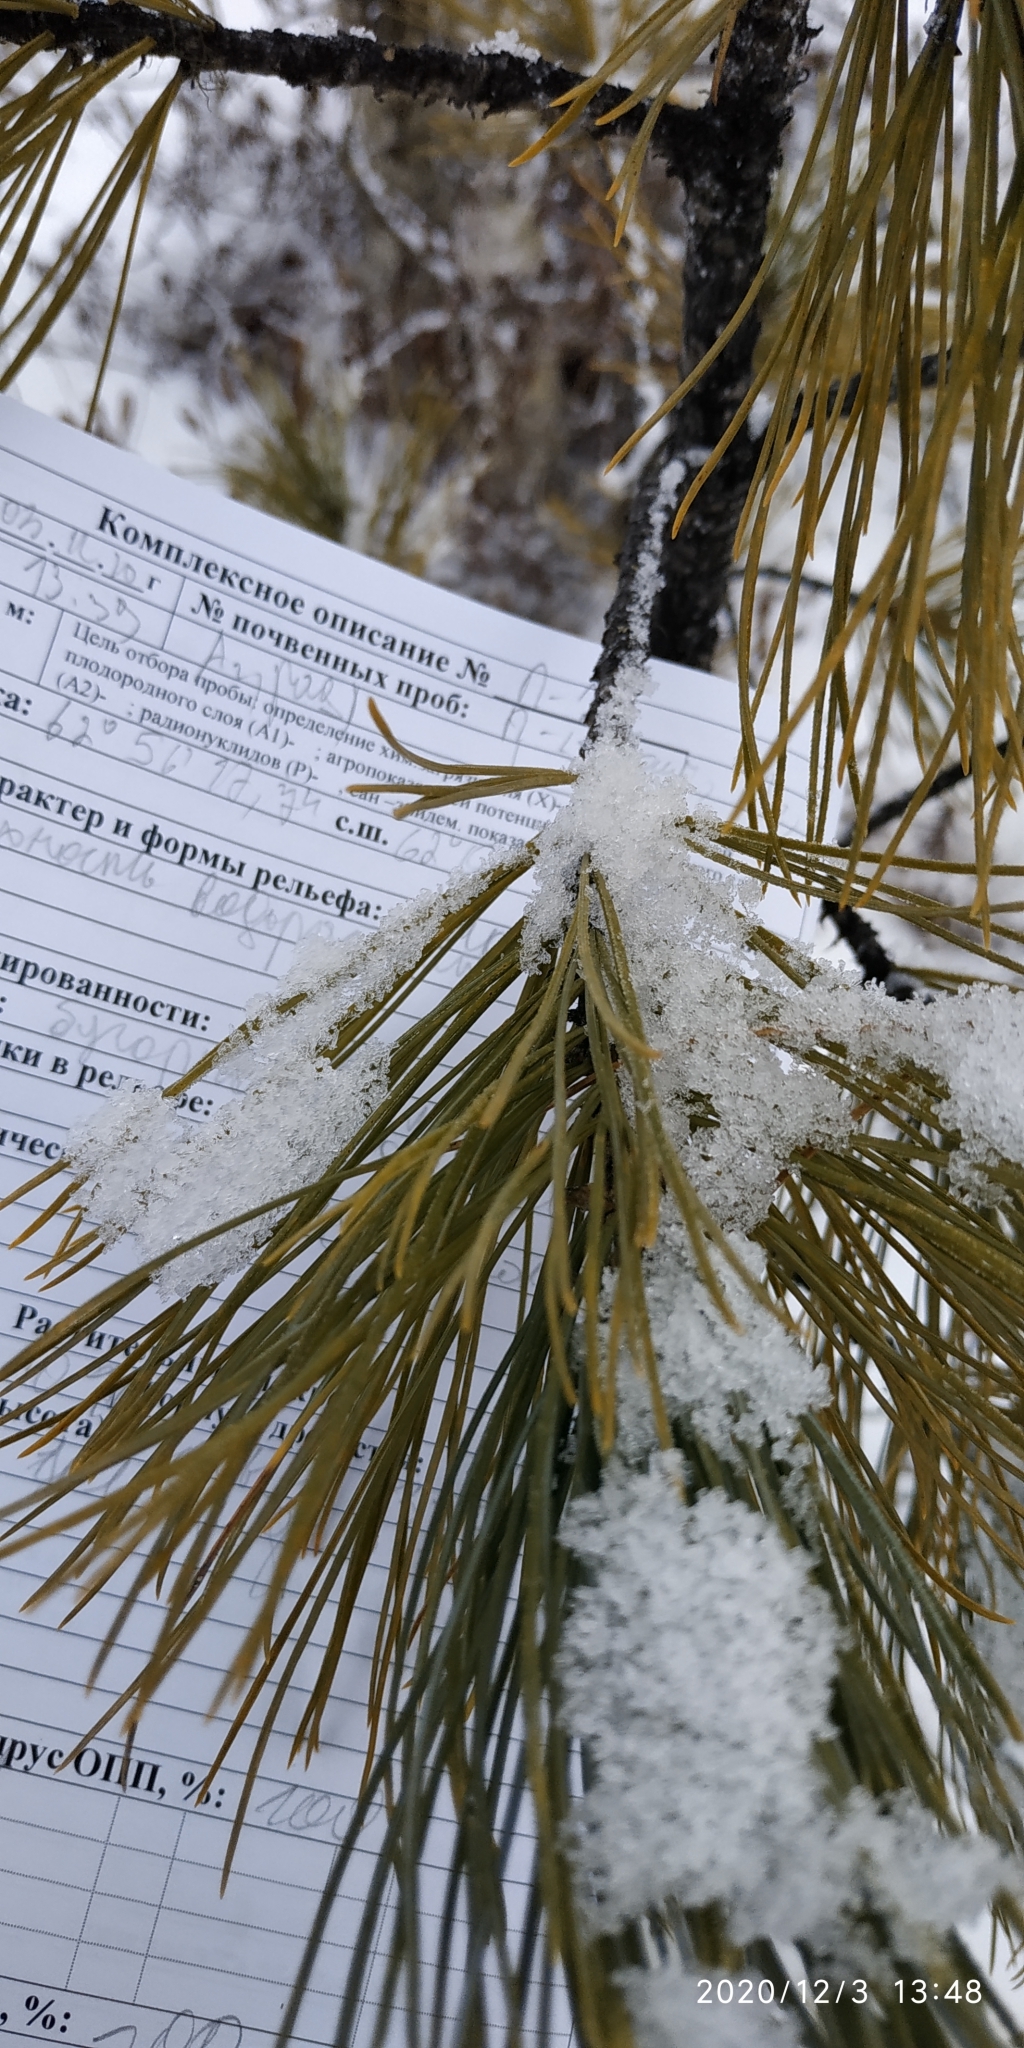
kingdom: Plantae
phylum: Tracheophyta
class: Pinopsida
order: Pinales
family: Pinaceae
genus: Pinus
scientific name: Pinus sibirica
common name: Siberian pine
